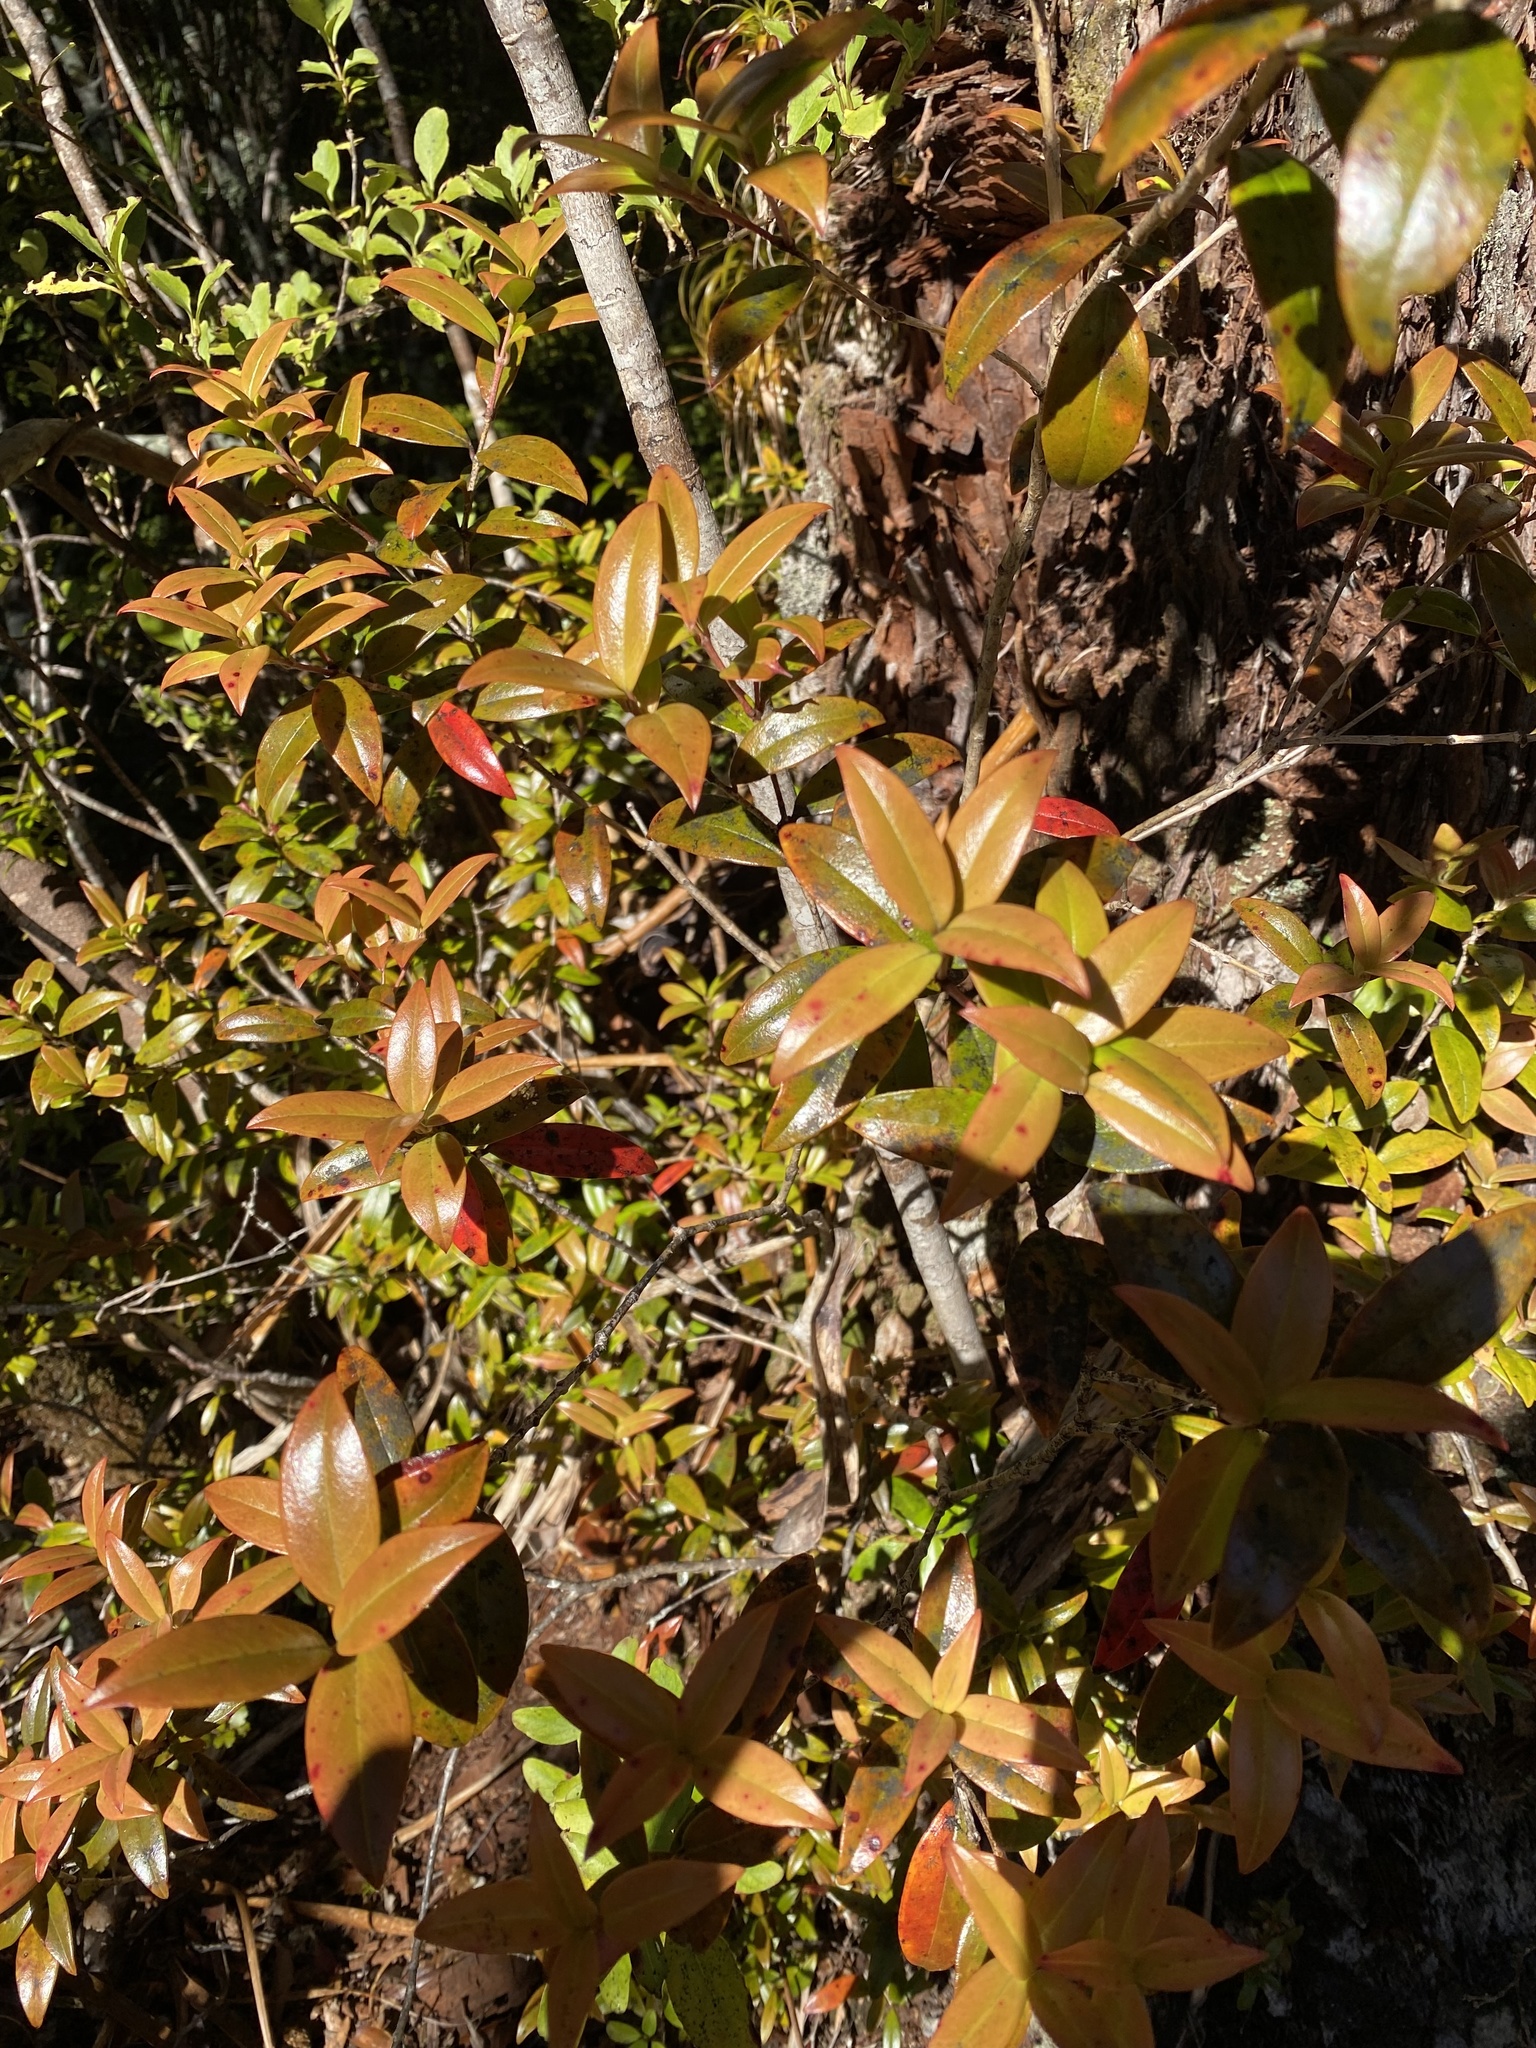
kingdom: Plantae
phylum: Tracheophyta
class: Magnoliopsida
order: Myrtales
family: Myrtaceae
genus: Metrosideros
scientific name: Metrosideros umbellata
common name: Southern rata
